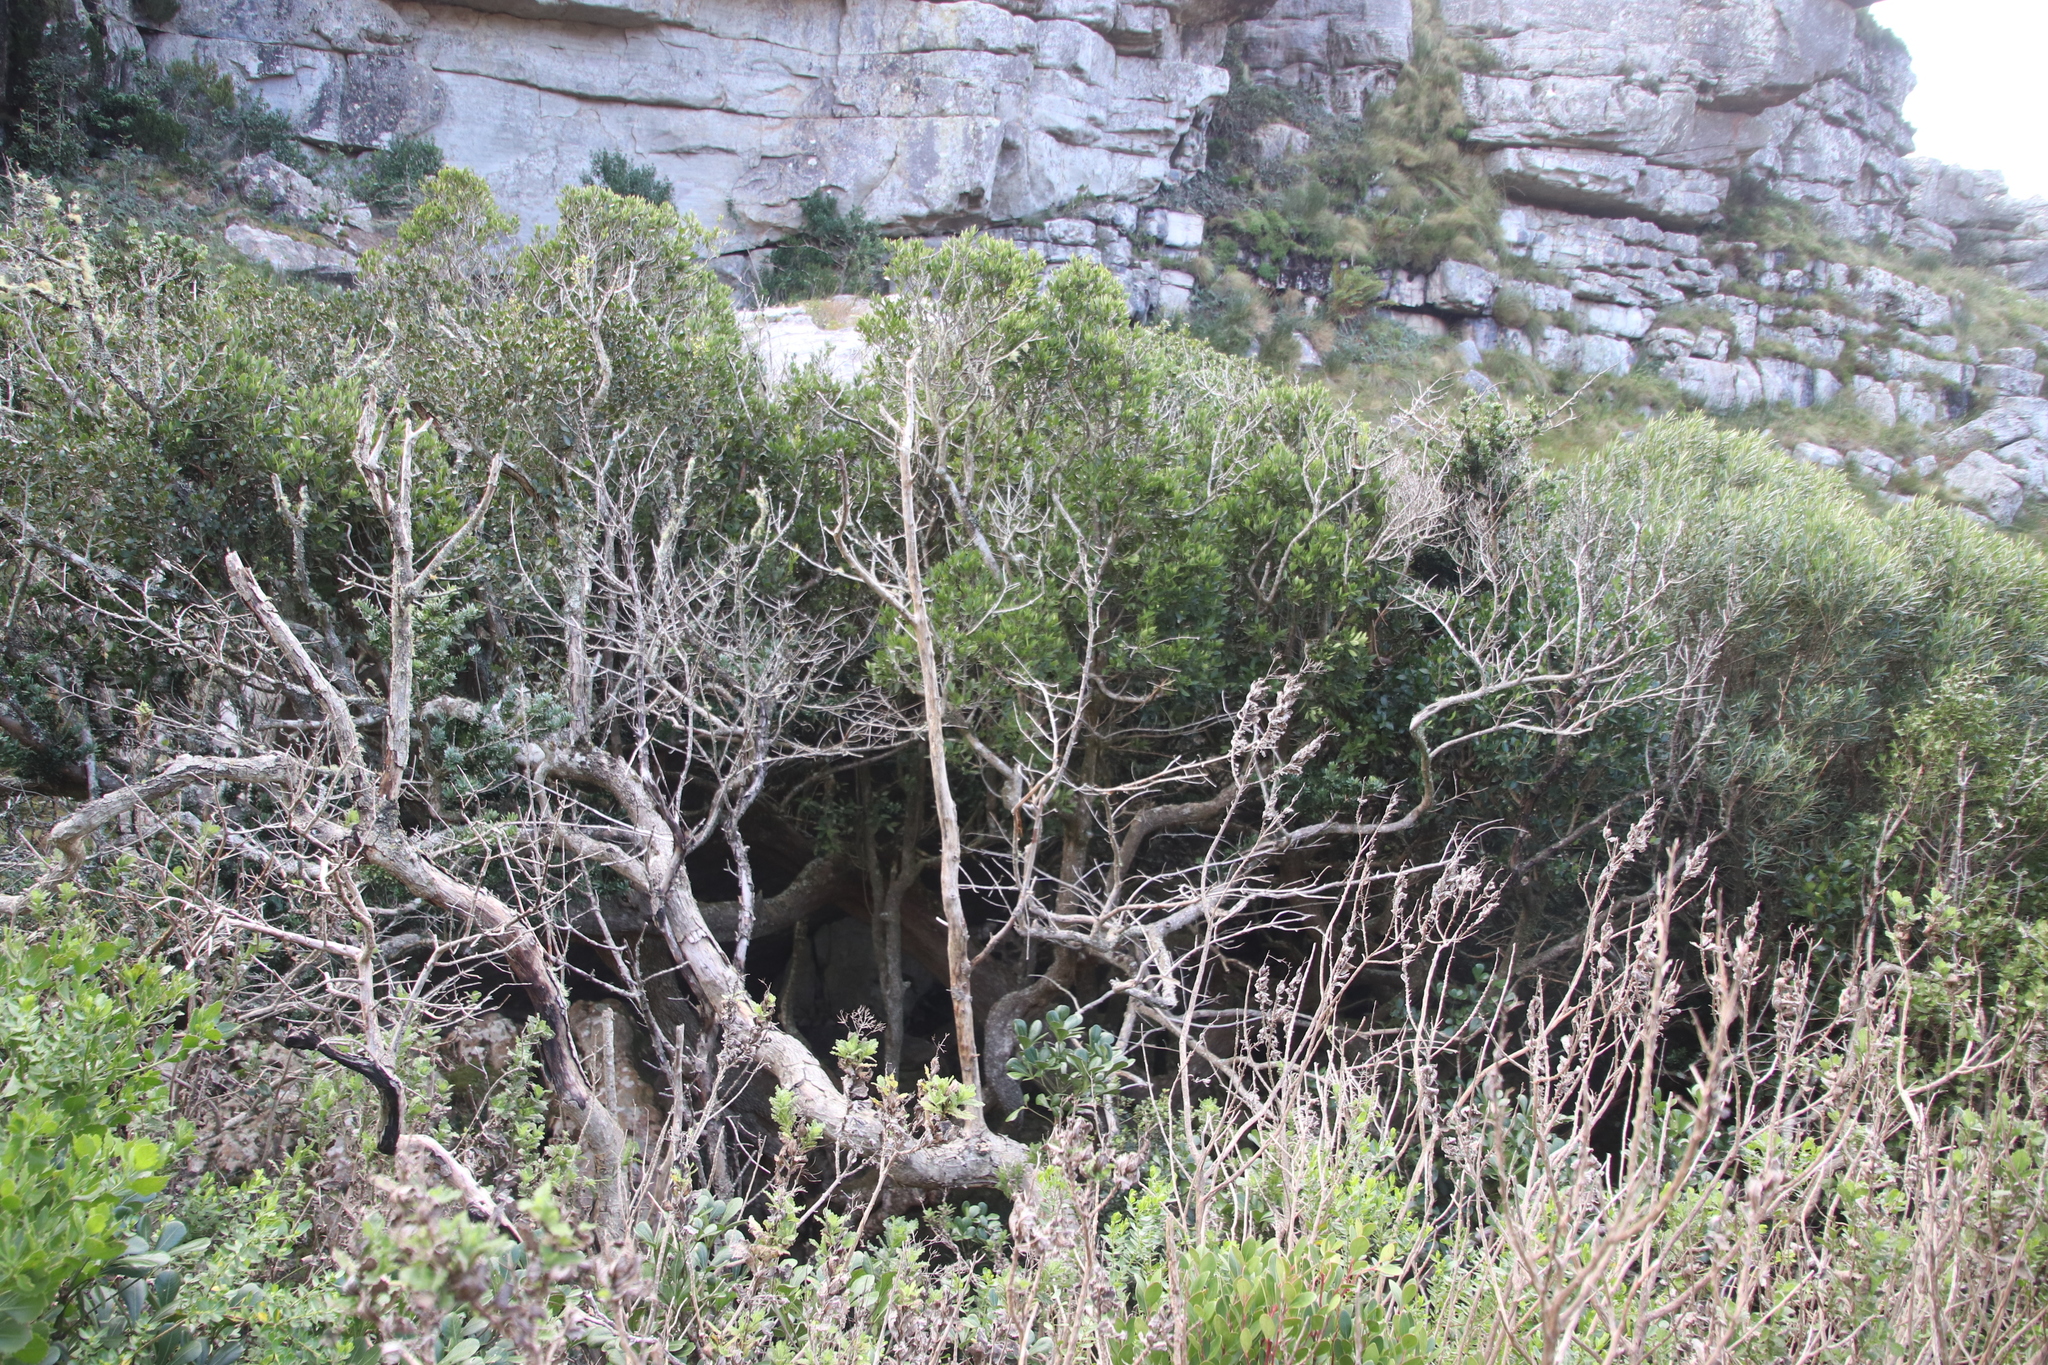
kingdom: Plantae
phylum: Tracheophyta
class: Magnoliopsida
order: Celastrales
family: Celastraceae
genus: Elaeodendron
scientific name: Elaeodendron schinoides
